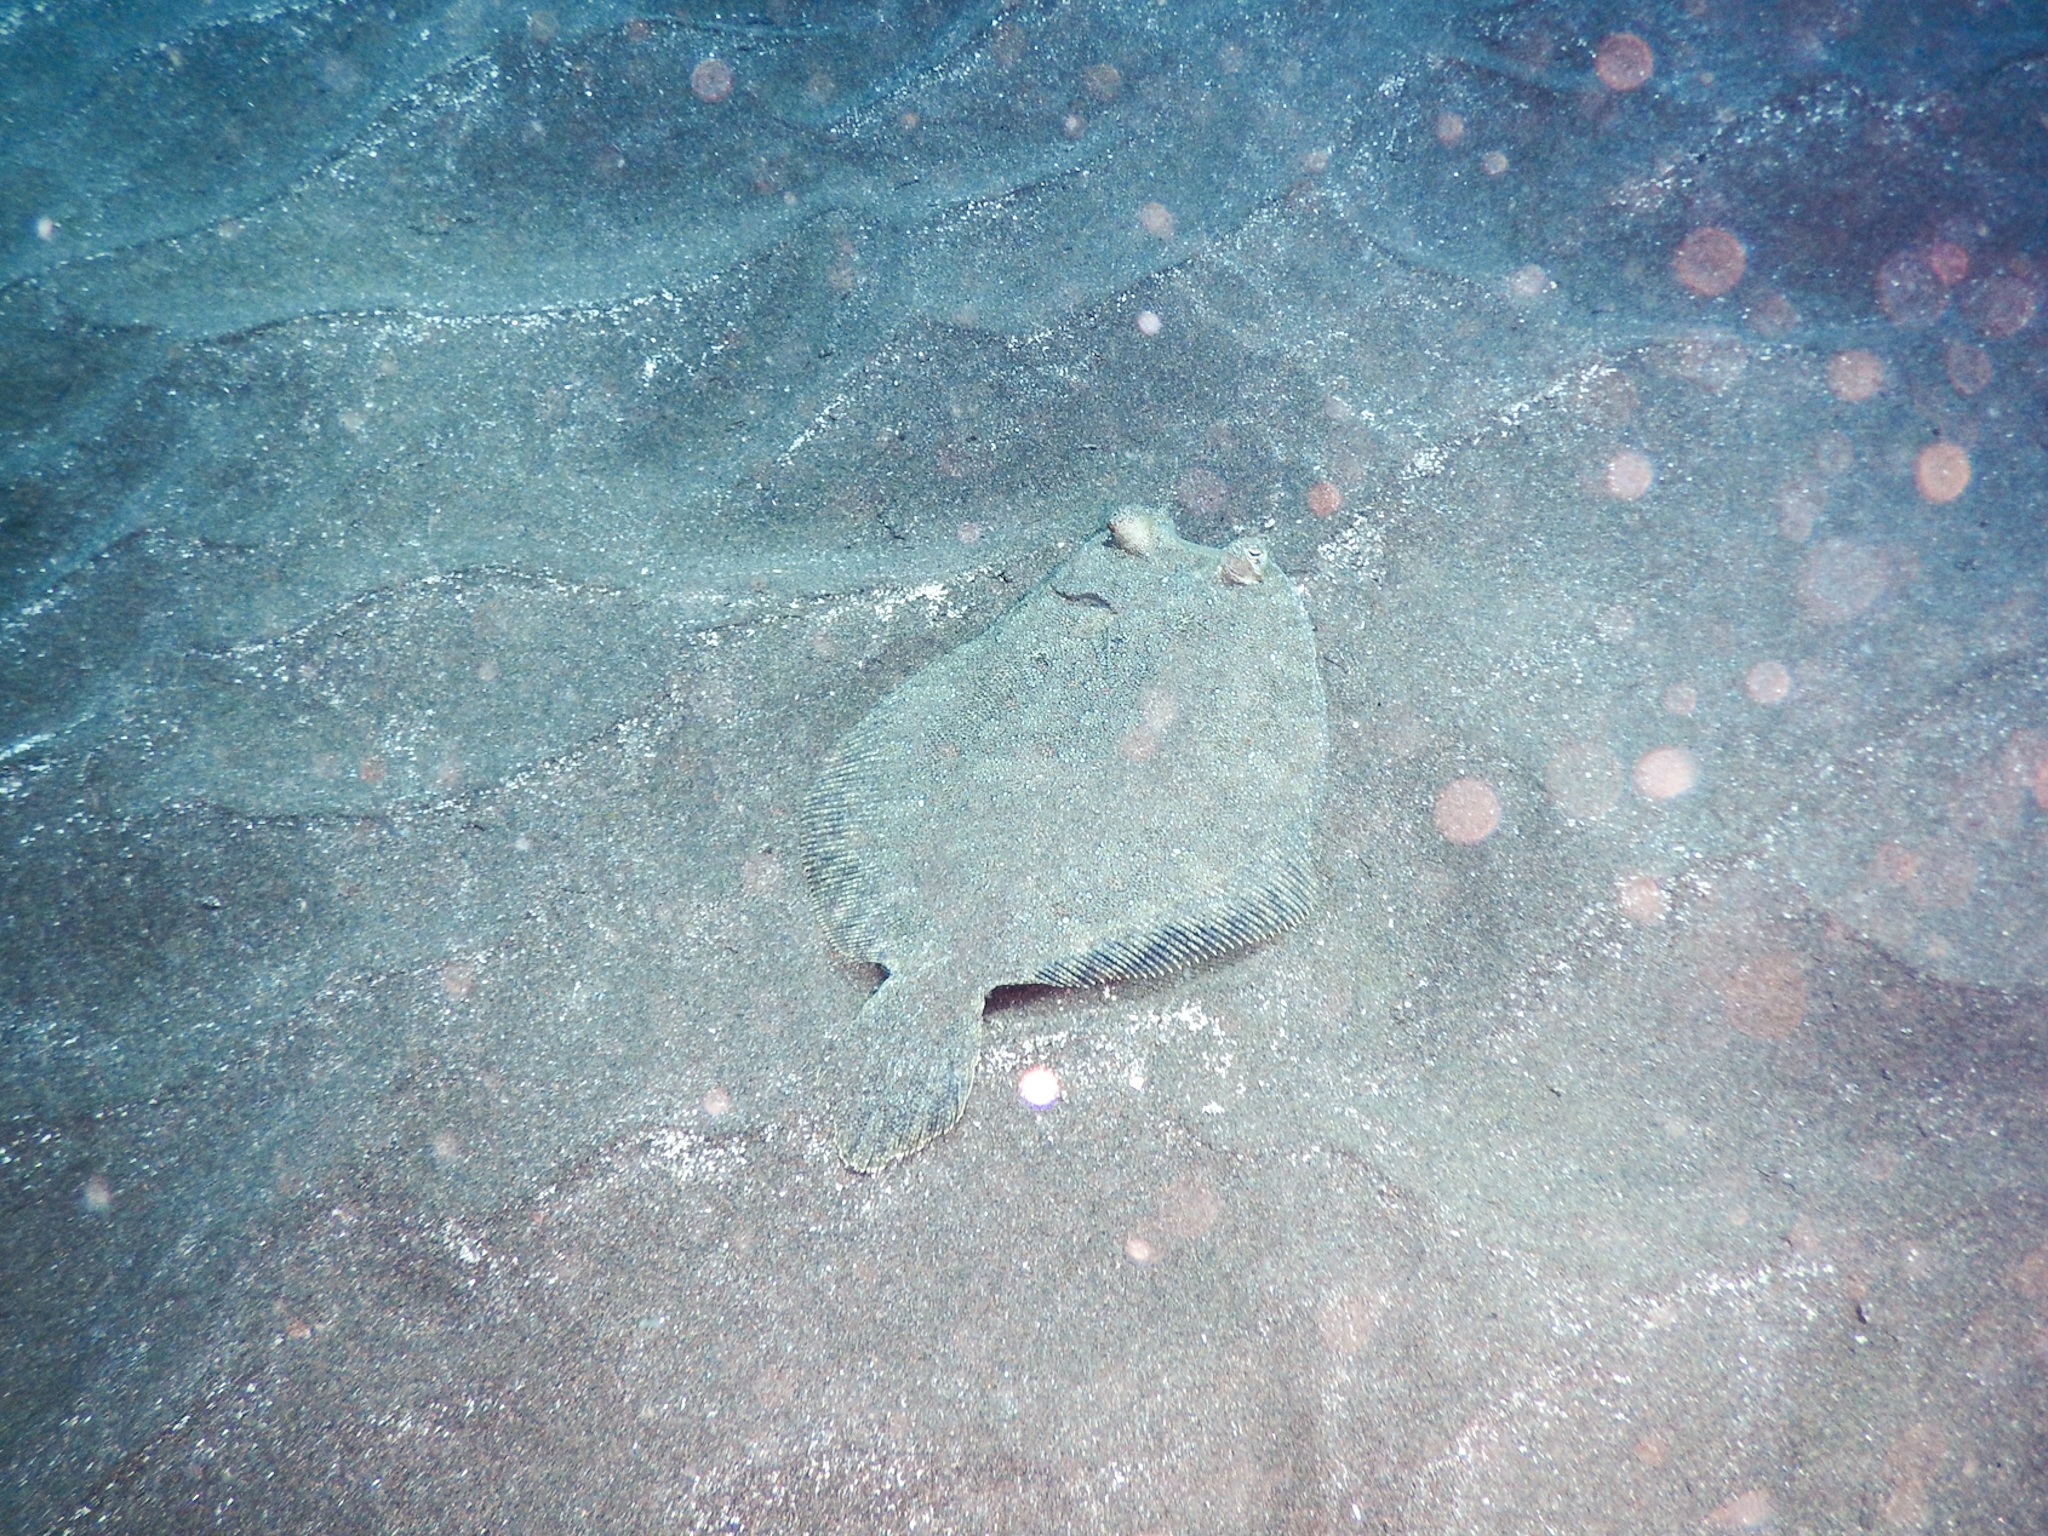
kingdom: Animalia
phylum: Chordata
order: Pleuronectiformes
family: Bothidae
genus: Bothus
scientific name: Bothus podas
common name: Wide-eyed flounder
